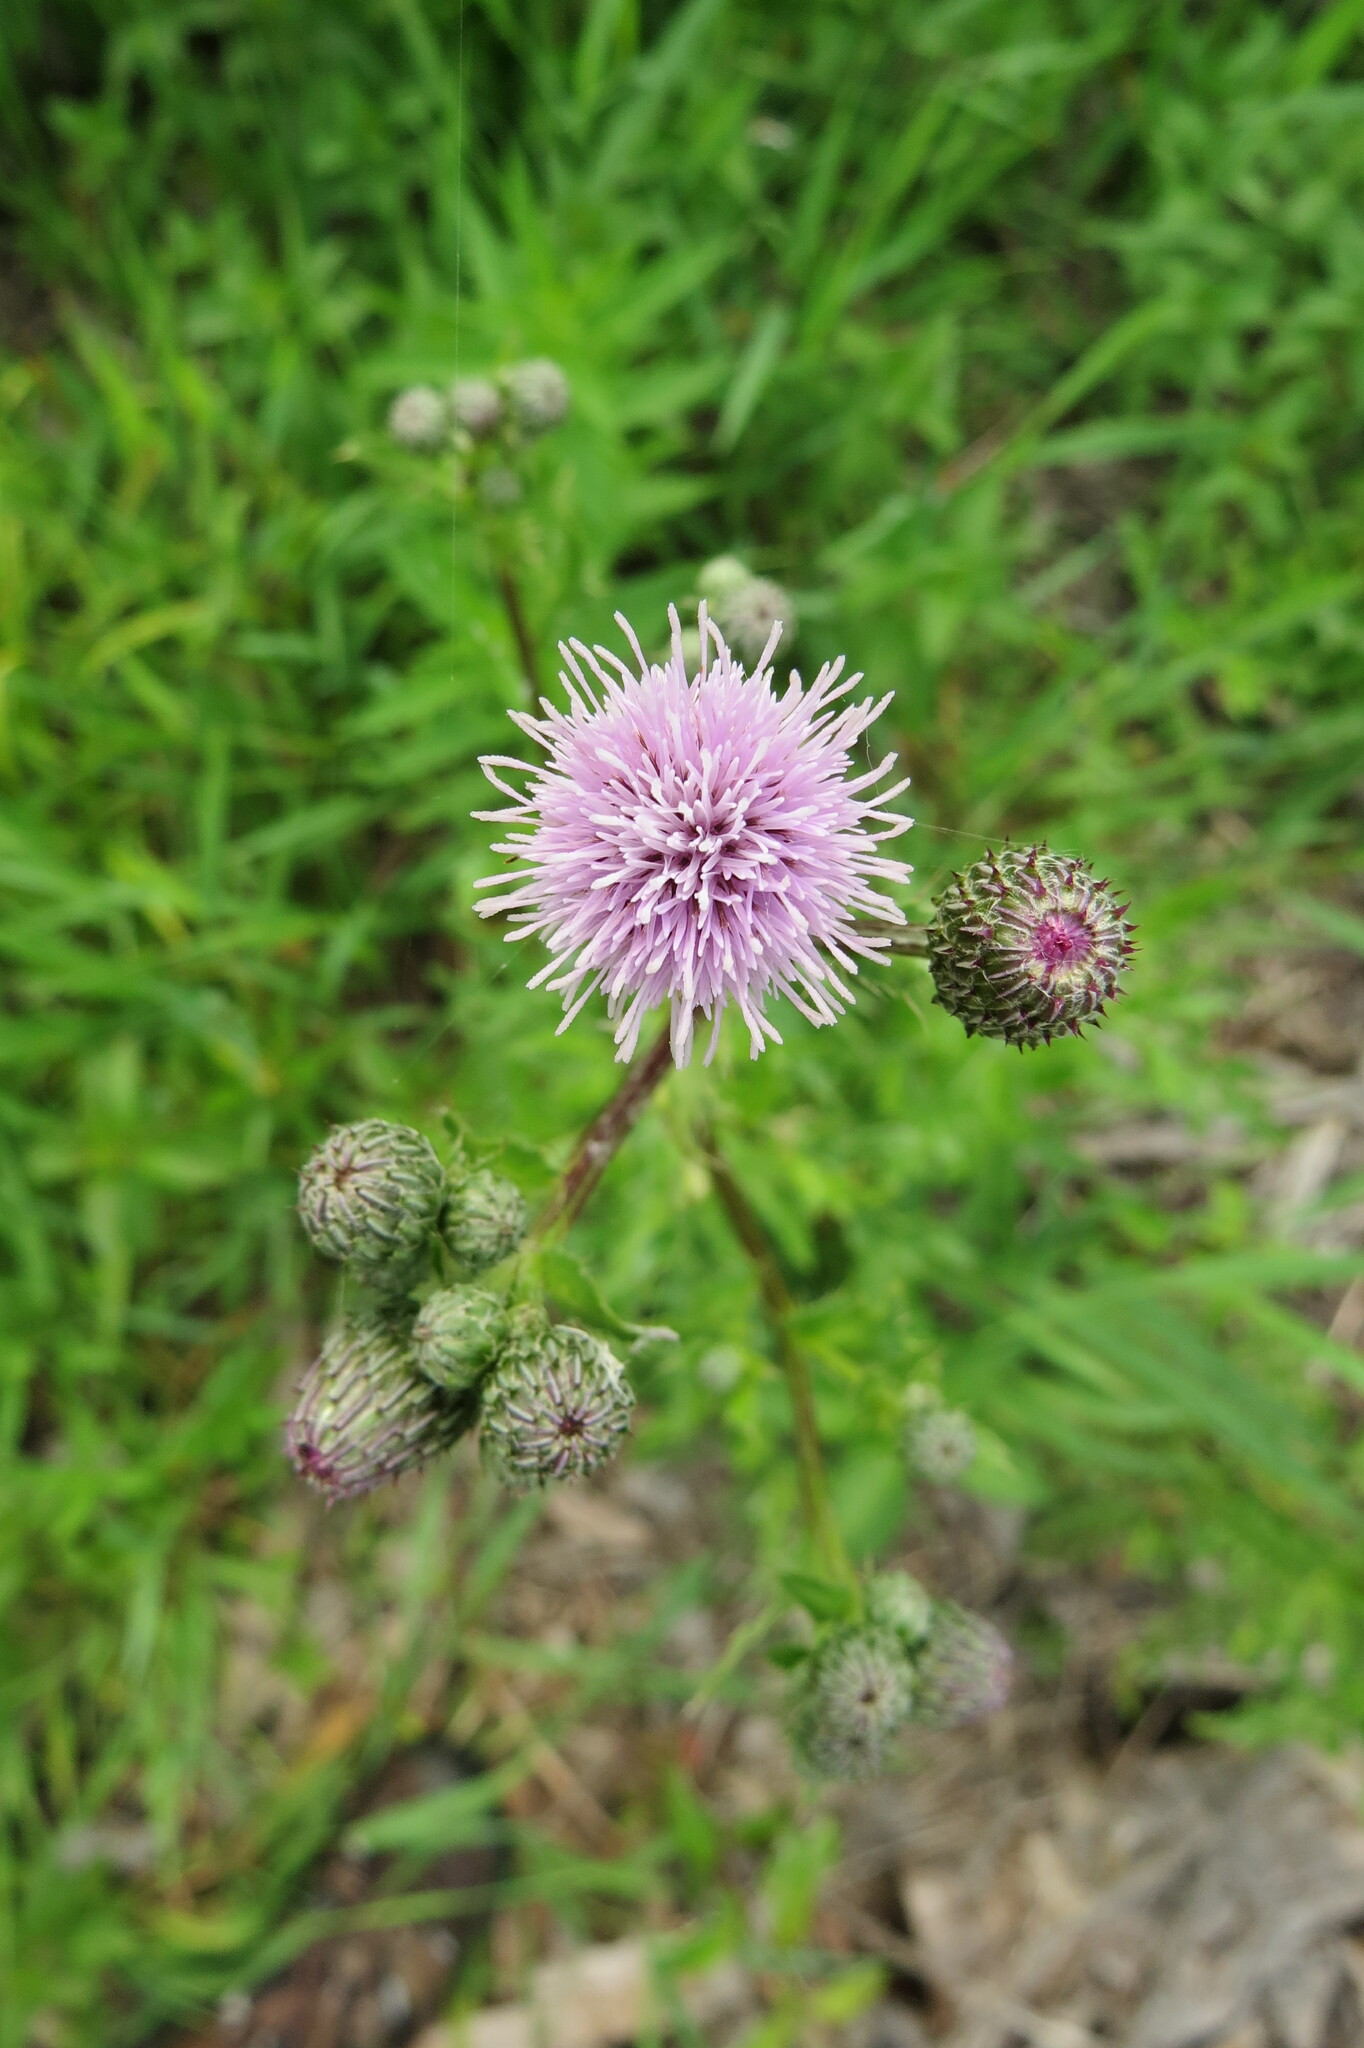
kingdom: Plantae
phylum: Tracheophyta
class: Magnoliopsida
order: Asterales
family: Asteraceae
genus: Cirsium
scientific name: Cirsium arvense
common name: Creeping thistle
